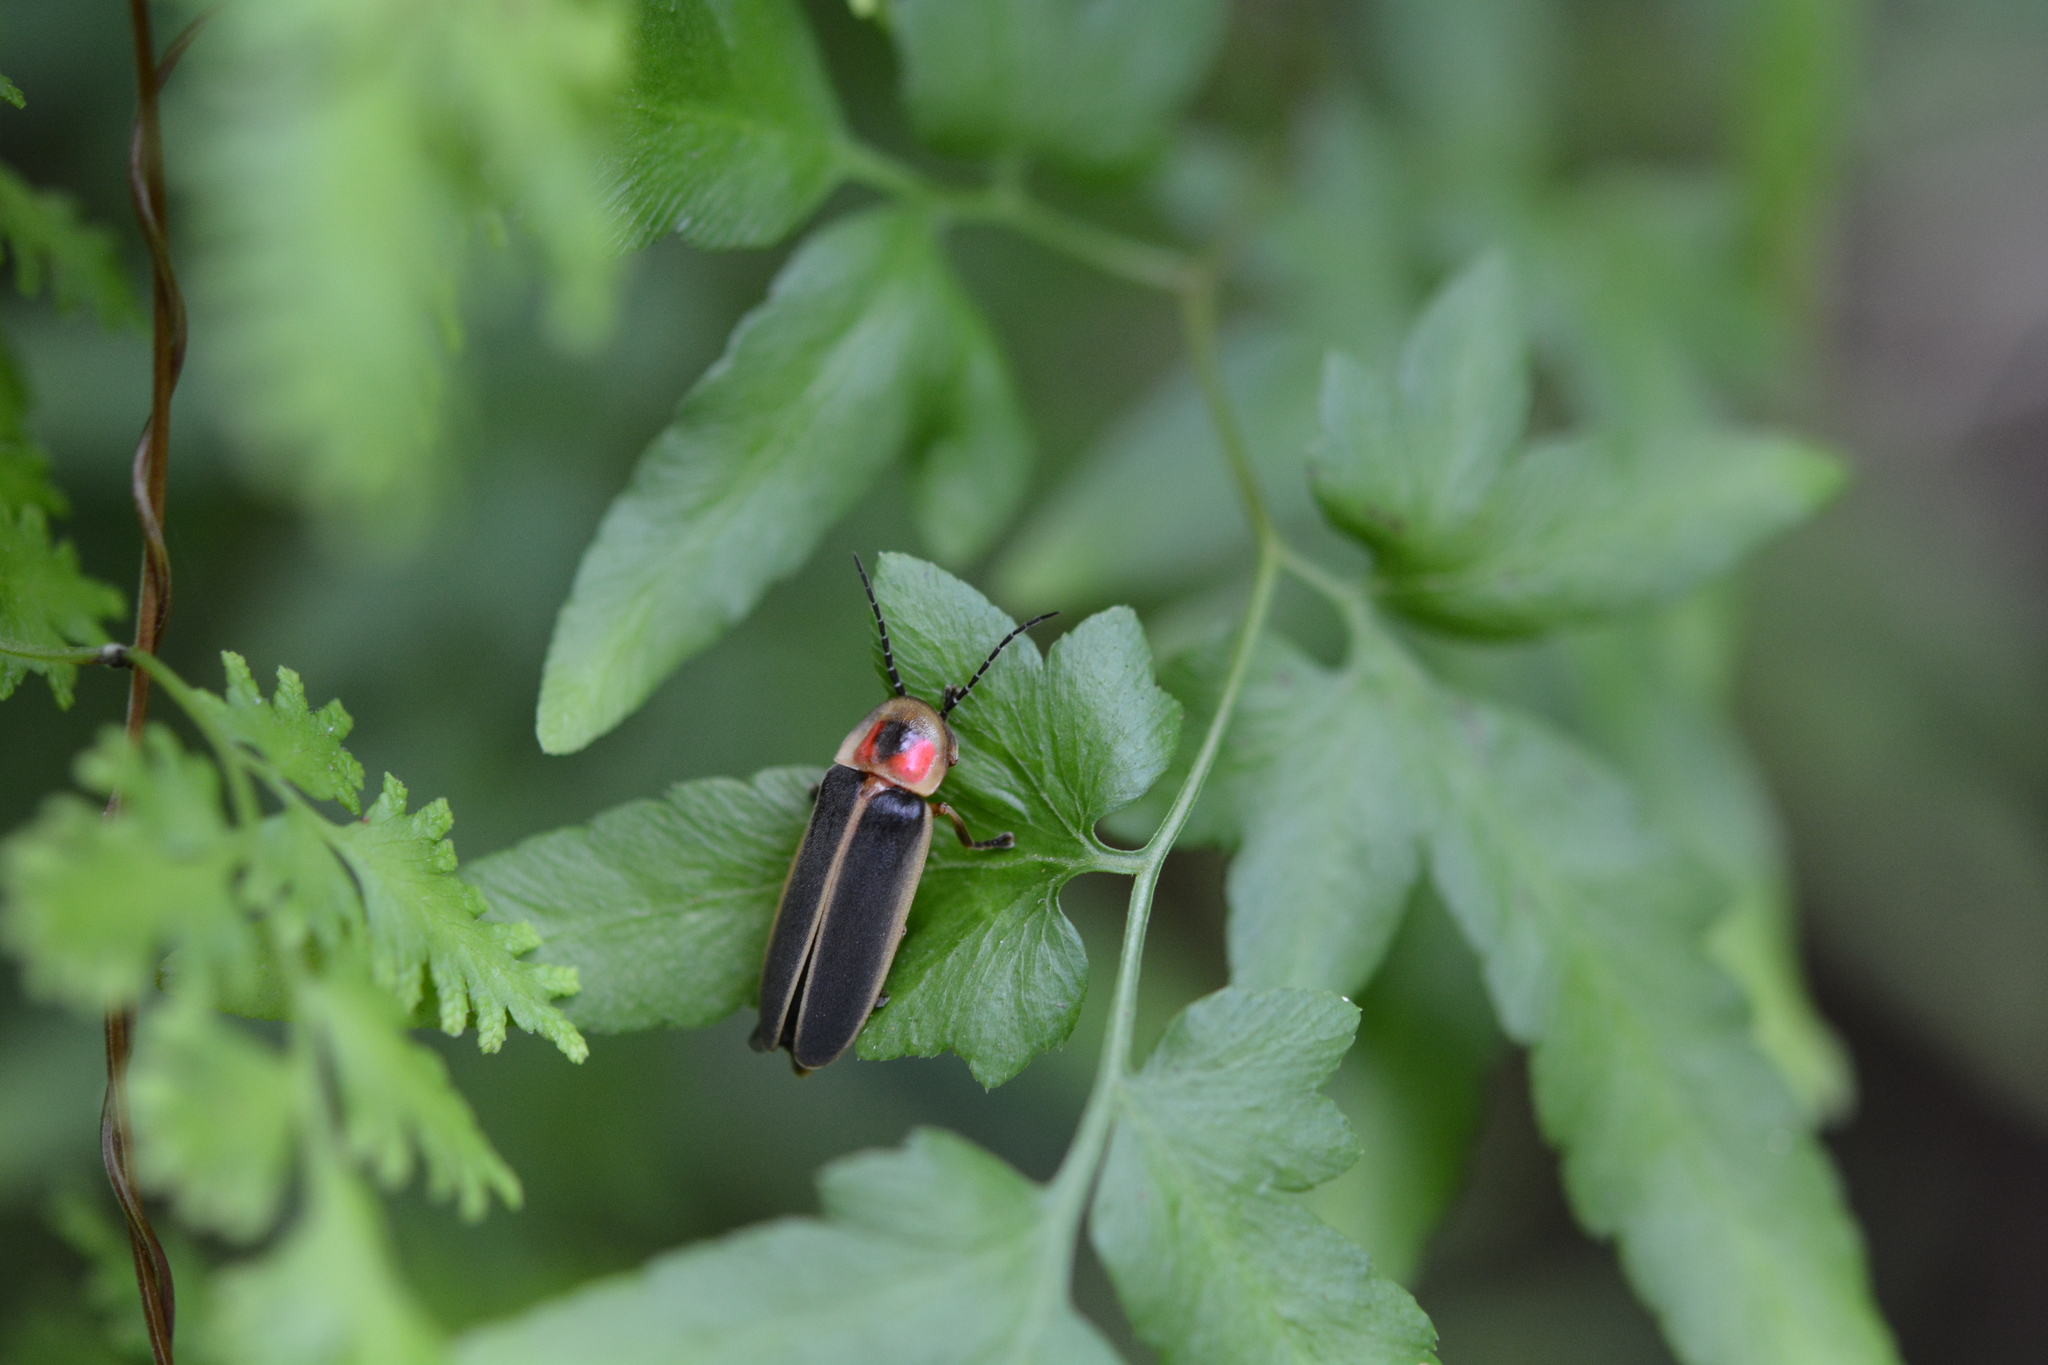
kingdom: Animalia
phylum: Arthropoda
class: Insecta
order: Coleoptera
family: Lampyridae
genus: Photinus
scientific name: Photinus pyralis
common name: Big dipper firefly
